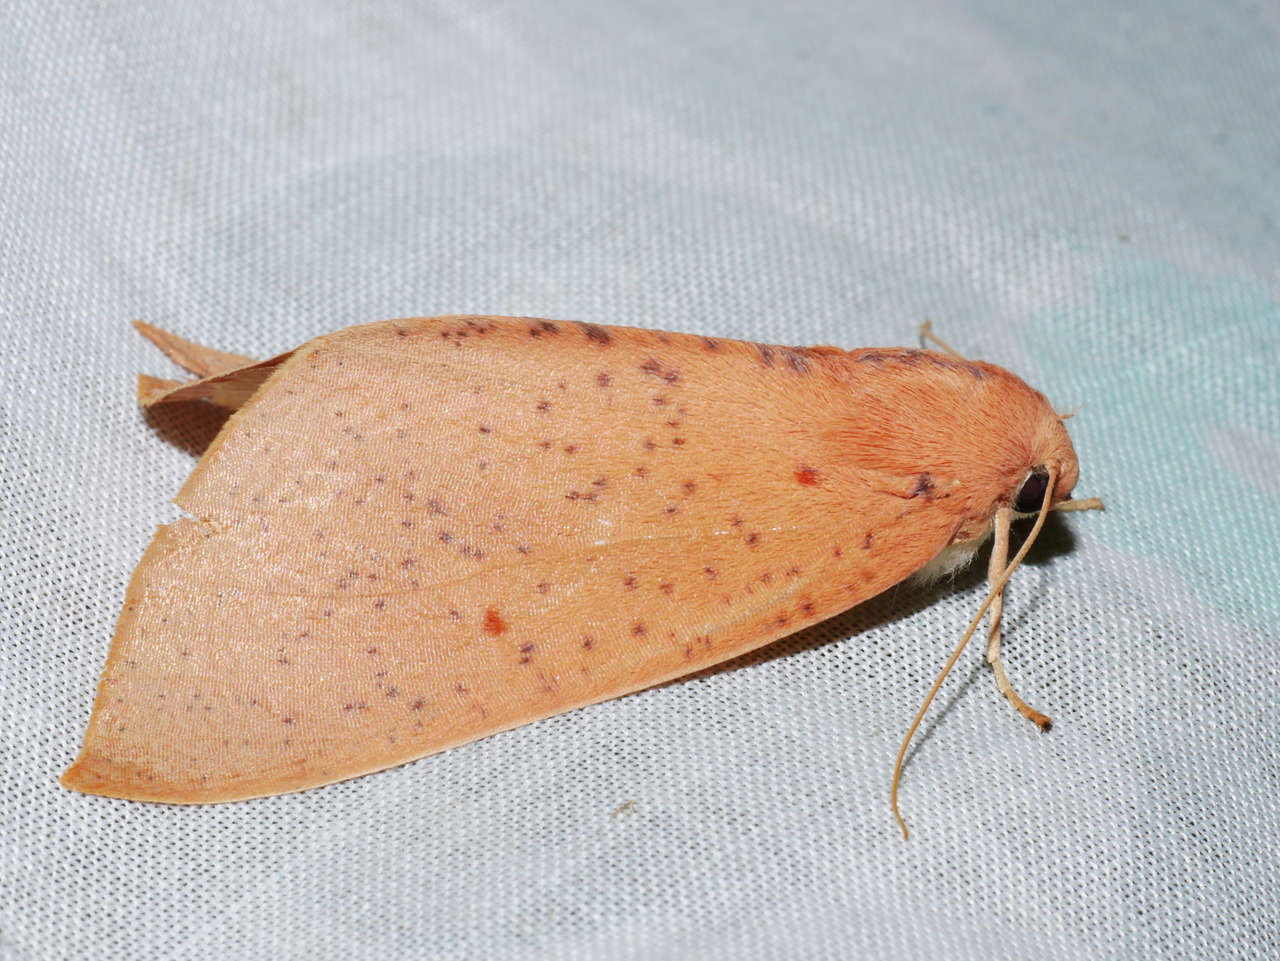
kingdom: Animalia
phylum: Arthropoda
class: Insecta
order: Lepidoptera
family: Geometridae
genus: Plesanemma
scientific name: Plesanemma fucata
